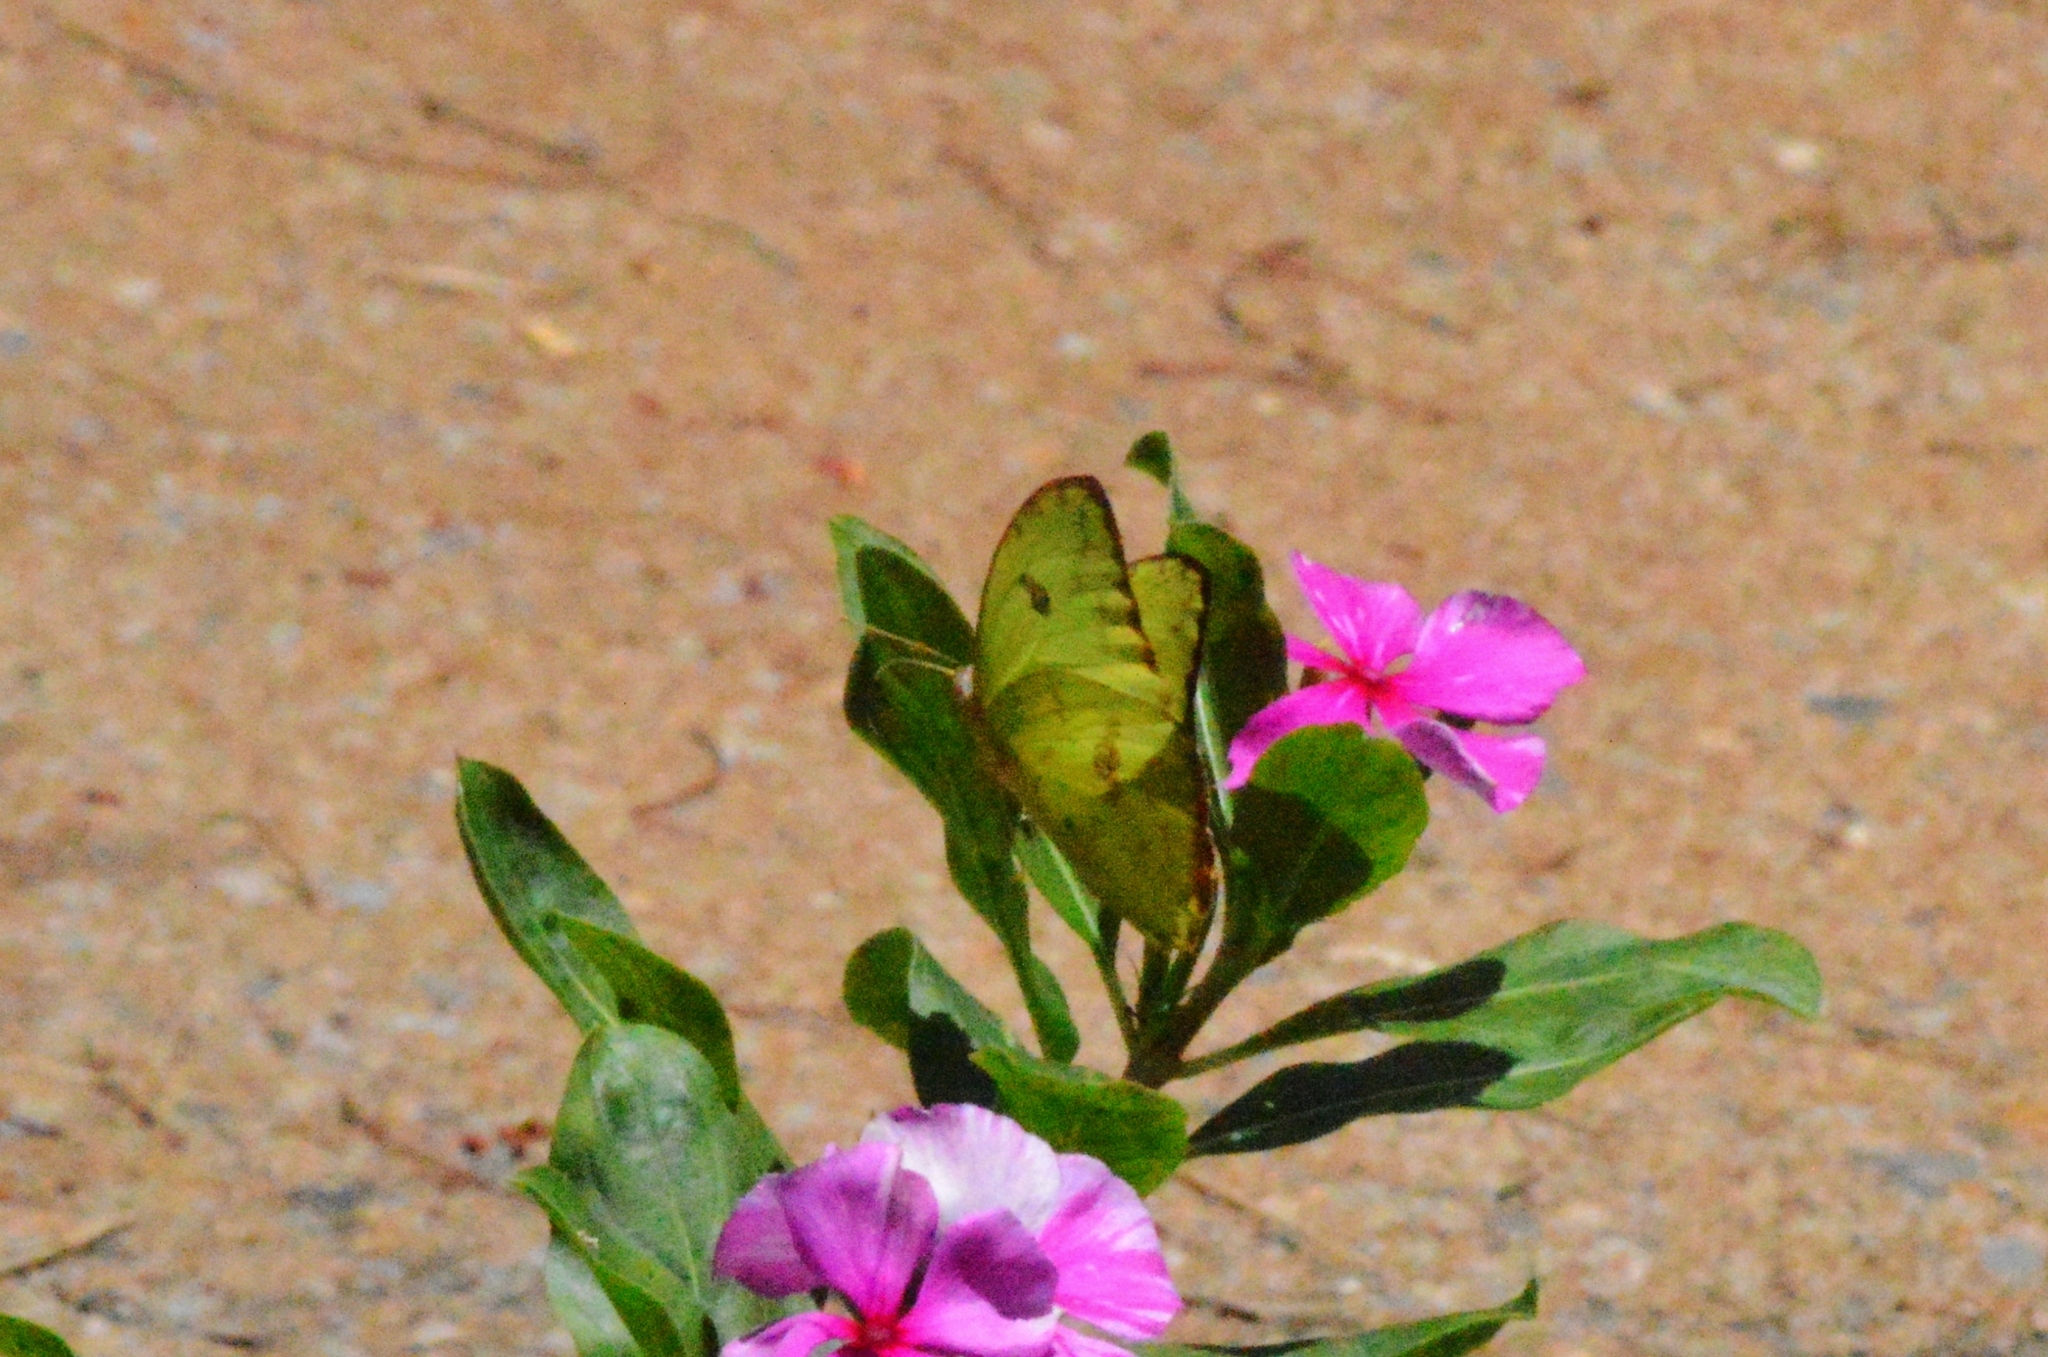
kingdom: Animalia
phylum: Arthropoda
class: Insecta
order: Lepidoptera
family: Pieridae
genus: Phoebis
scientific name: Phoebis marcellina
